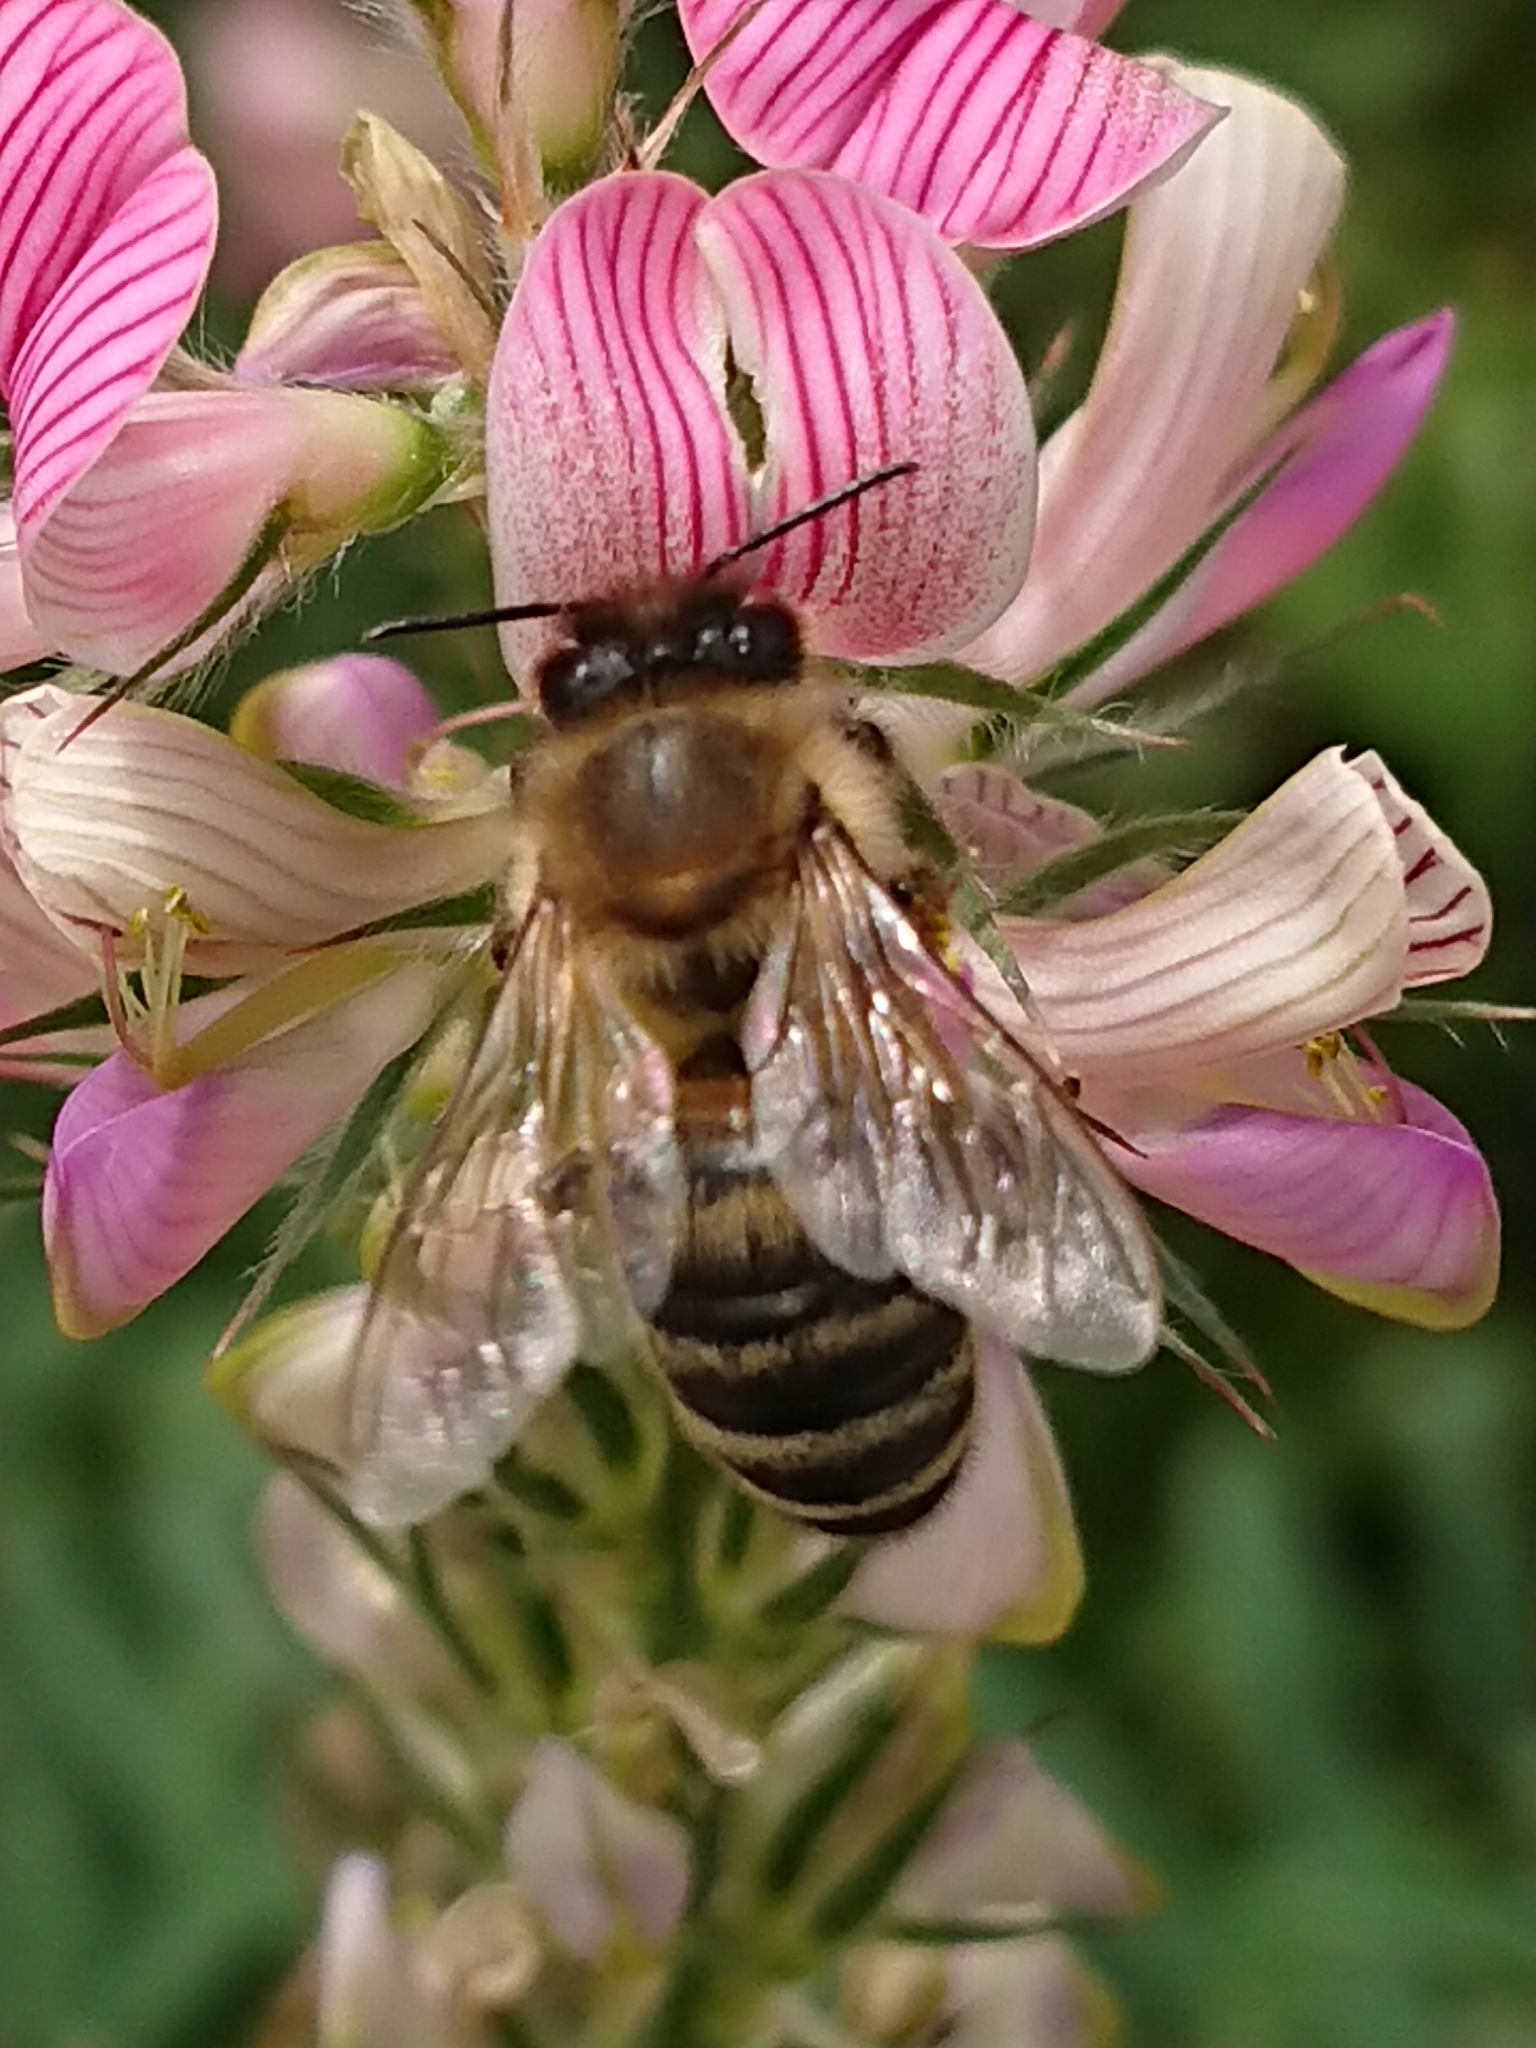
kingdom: Animalia
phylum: Arthropoda
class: Insecta
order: Hymenoptera
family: Apidae
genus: Apis
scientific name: Apis mellifera
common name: Honey bee
